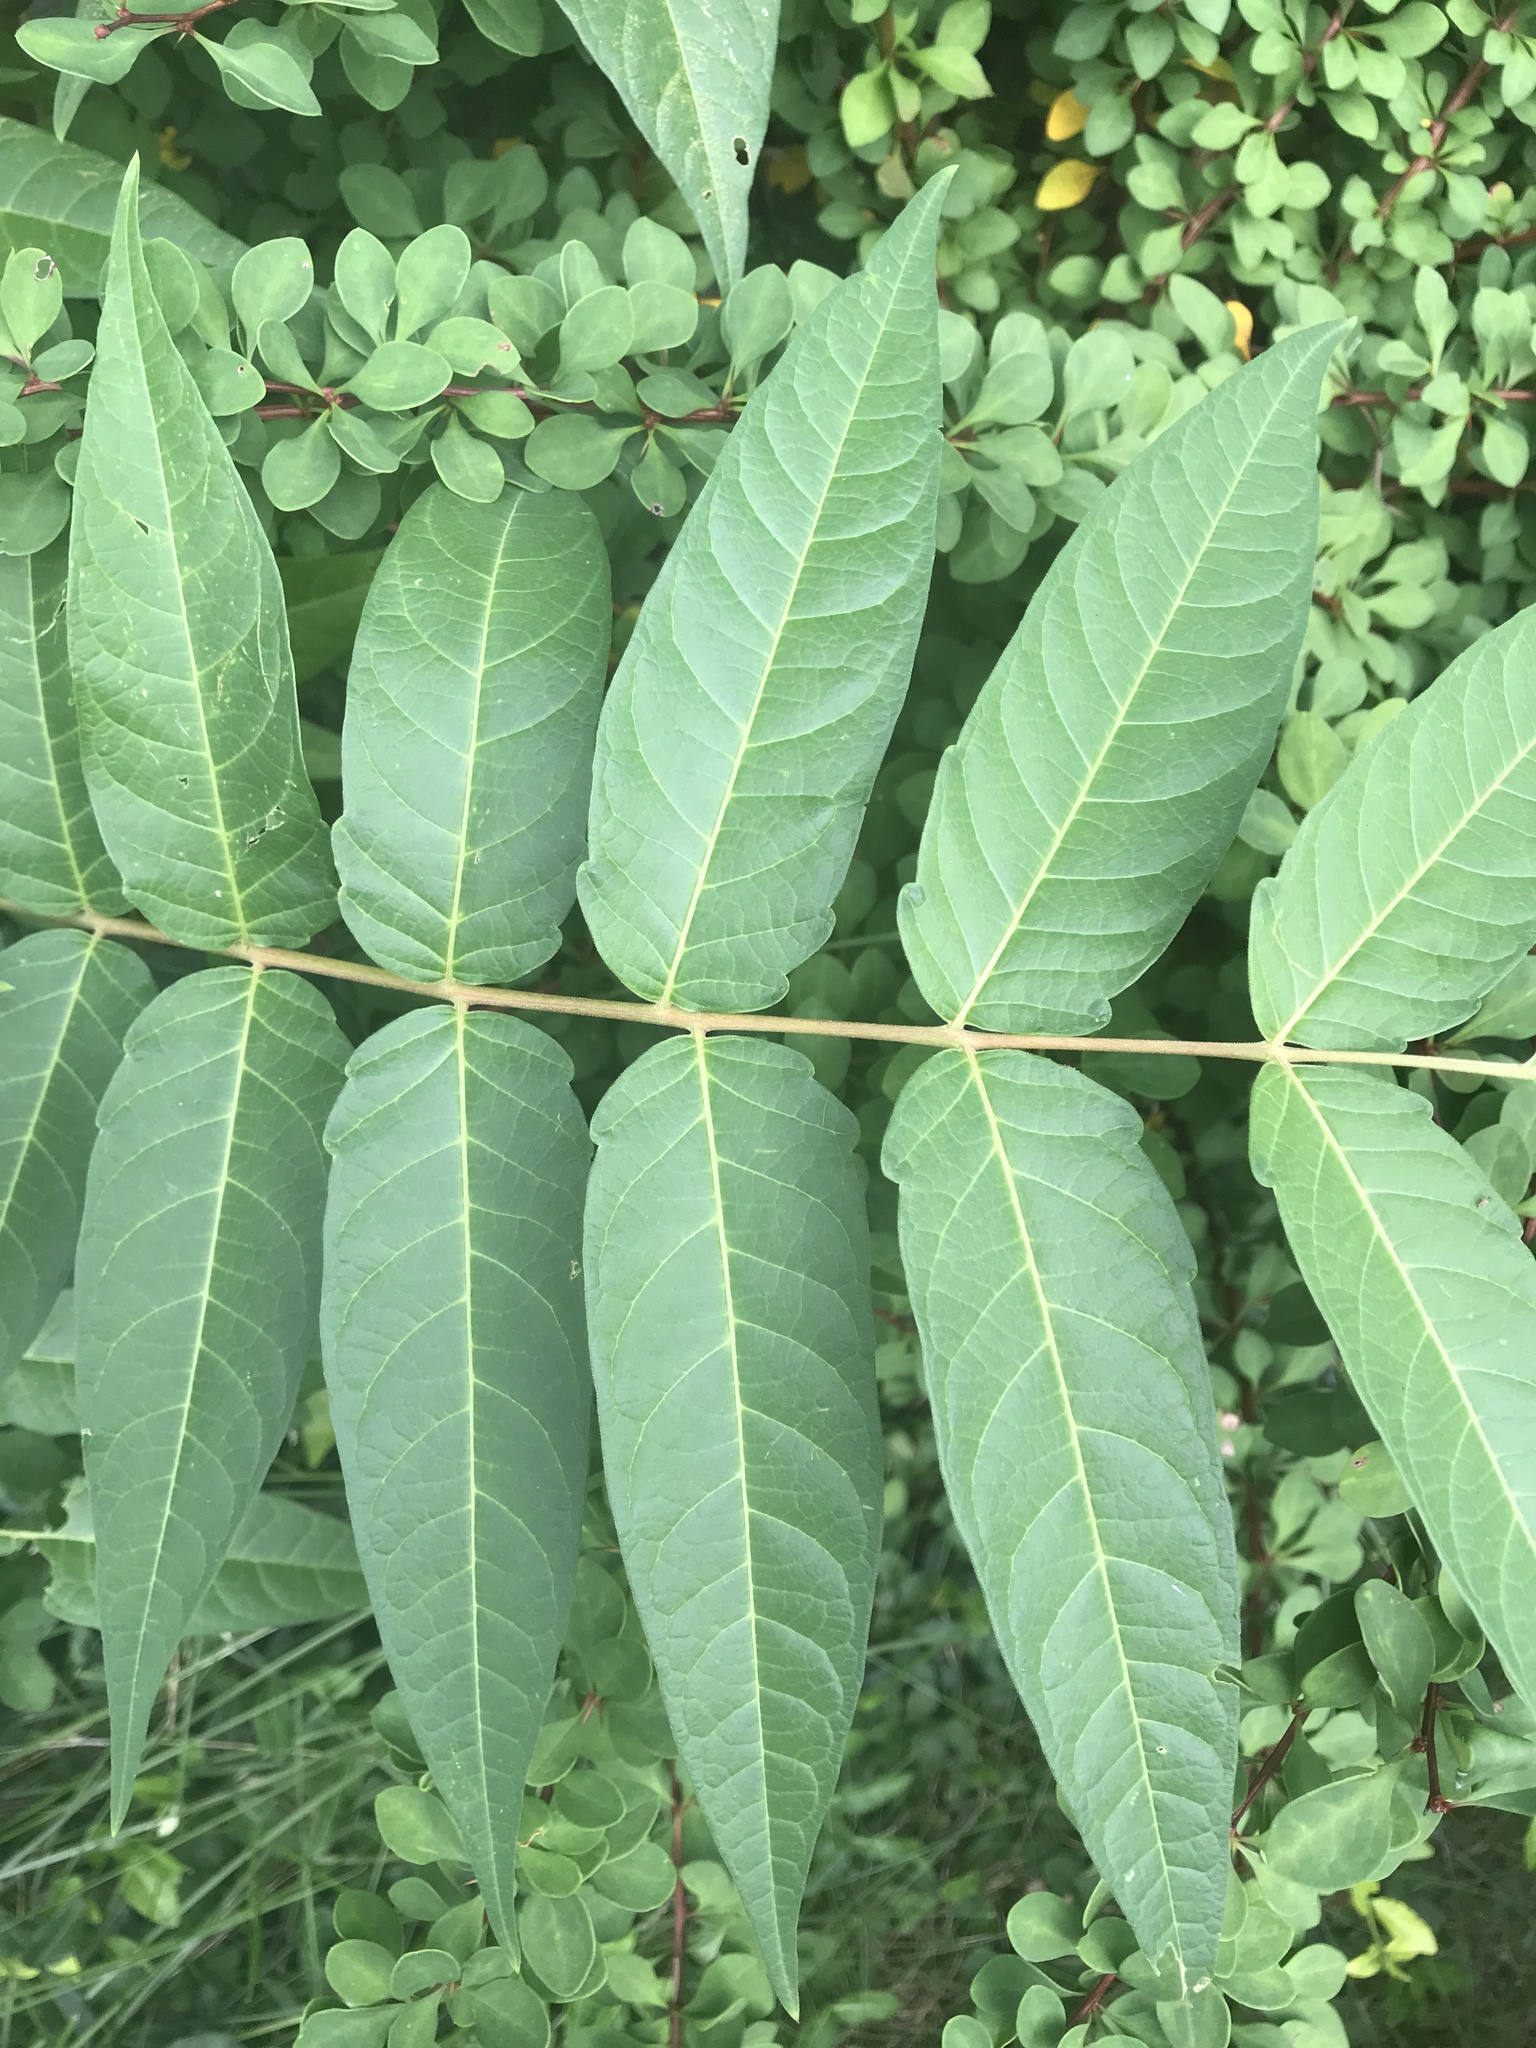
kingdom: Plantae
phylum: Tracheophyta
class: Magnoliopsida
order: Sapindales
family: Simaroubaceae
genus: Ailanthus
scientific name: Ailanthus altissima
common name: Tree-of-heaven
